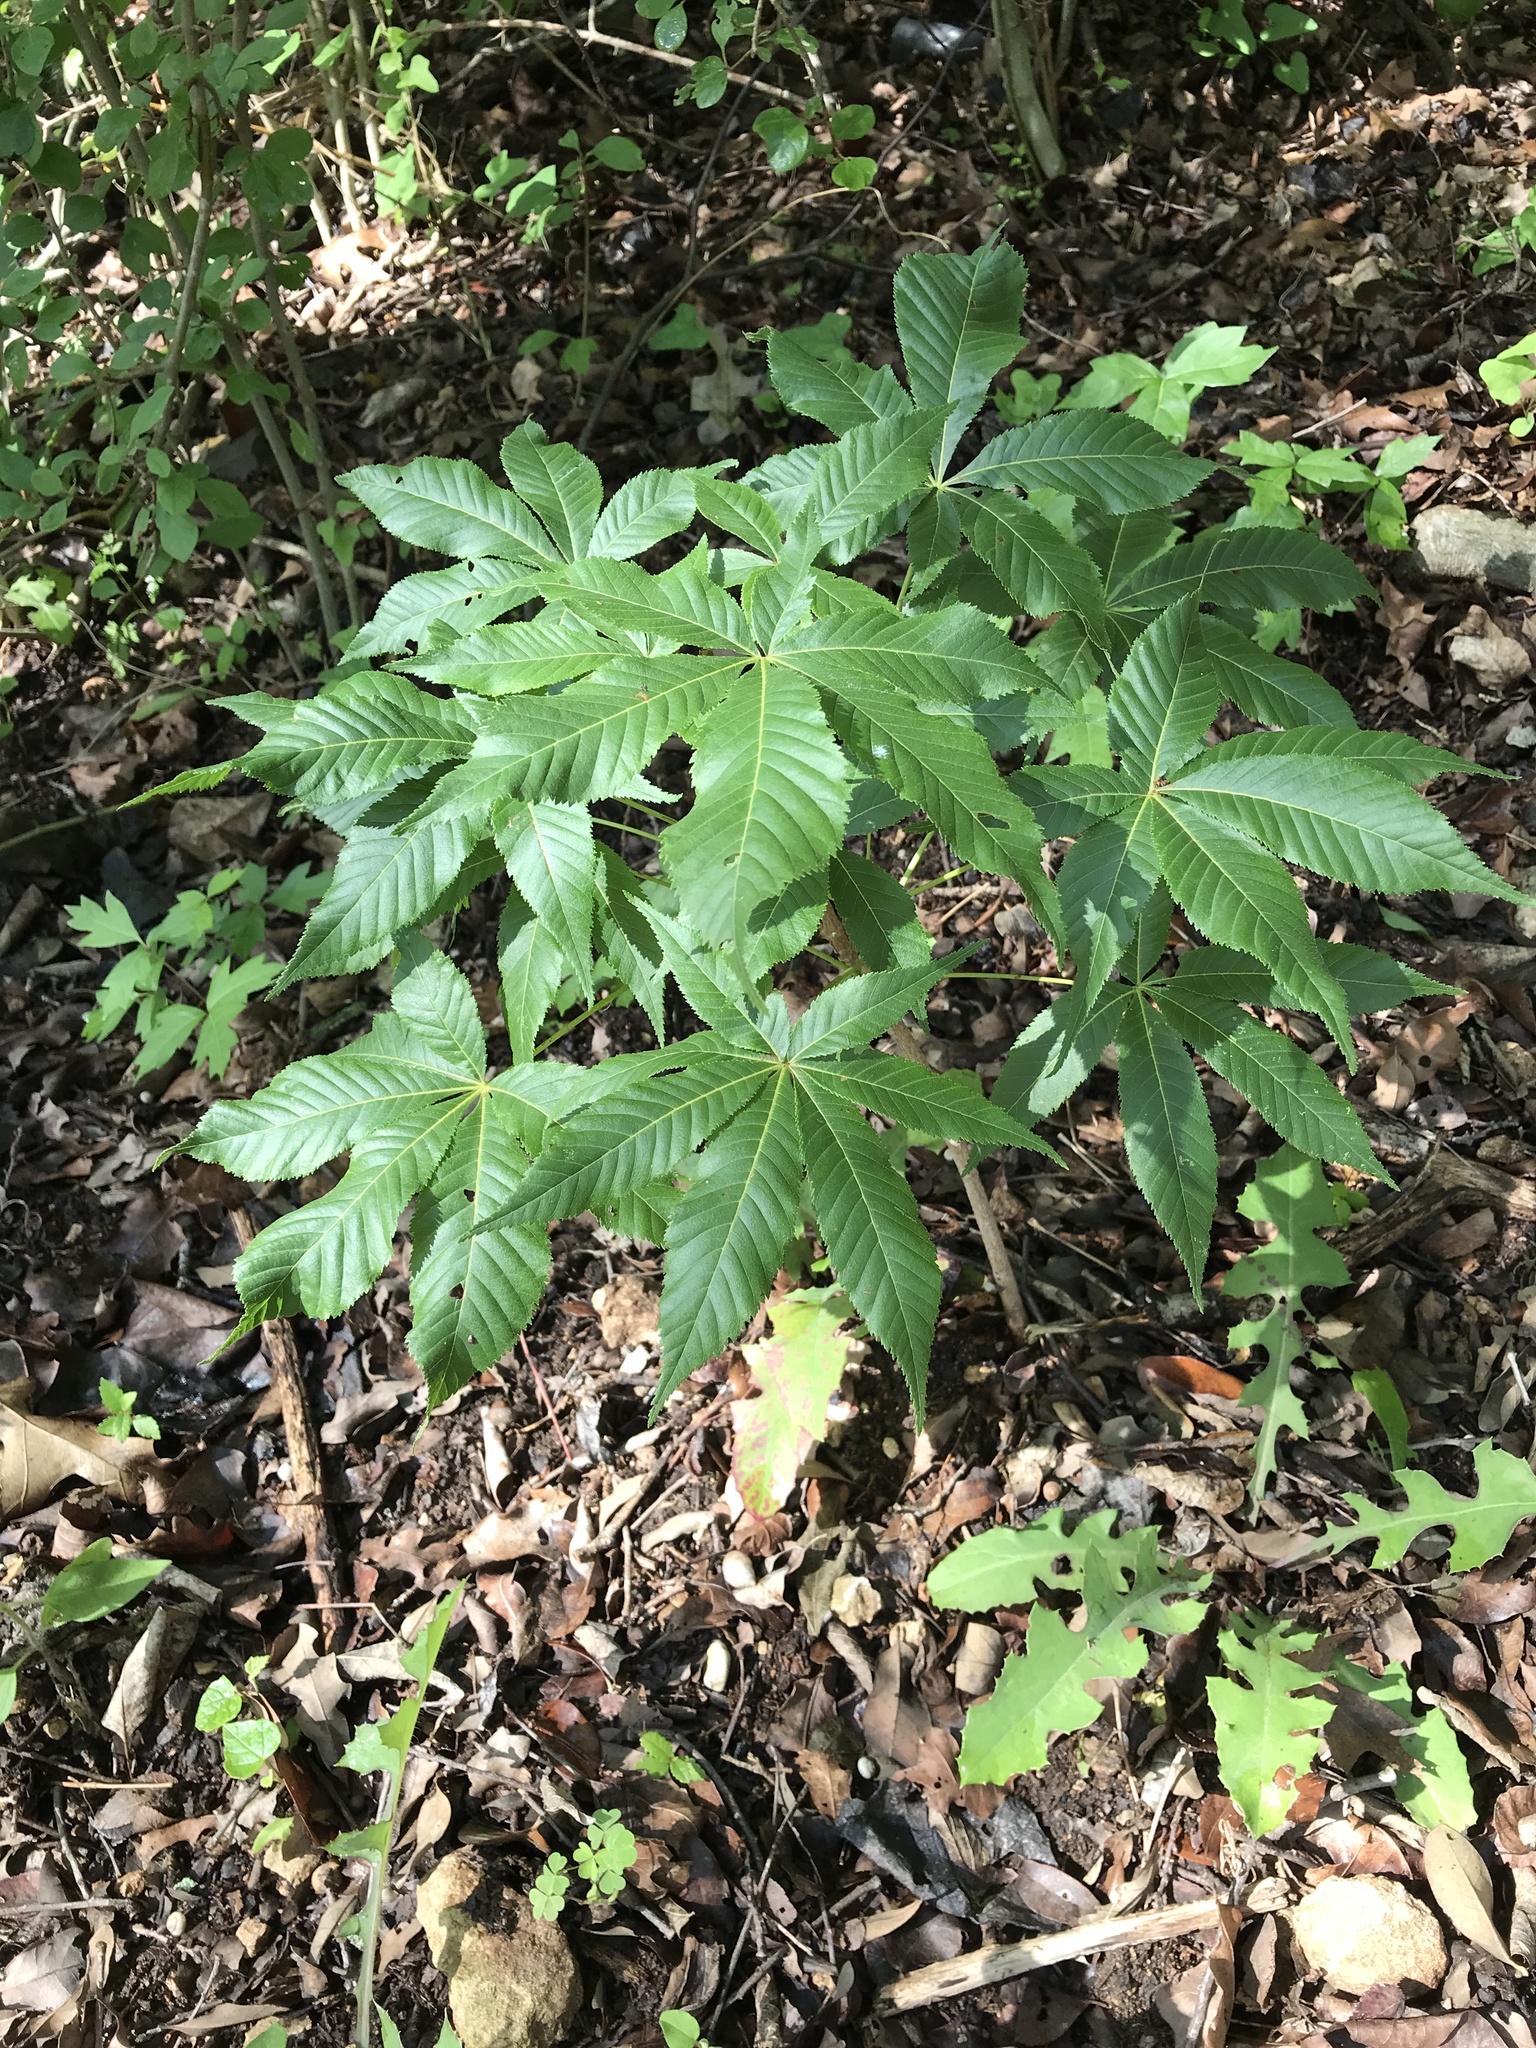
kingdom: Plantae
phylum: Tracheophyta
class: Magnoliopsida
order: Sapindales
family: Sapindaceae
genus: Aesculus
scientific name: Aesculus glabra
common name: Ohio buckeye
